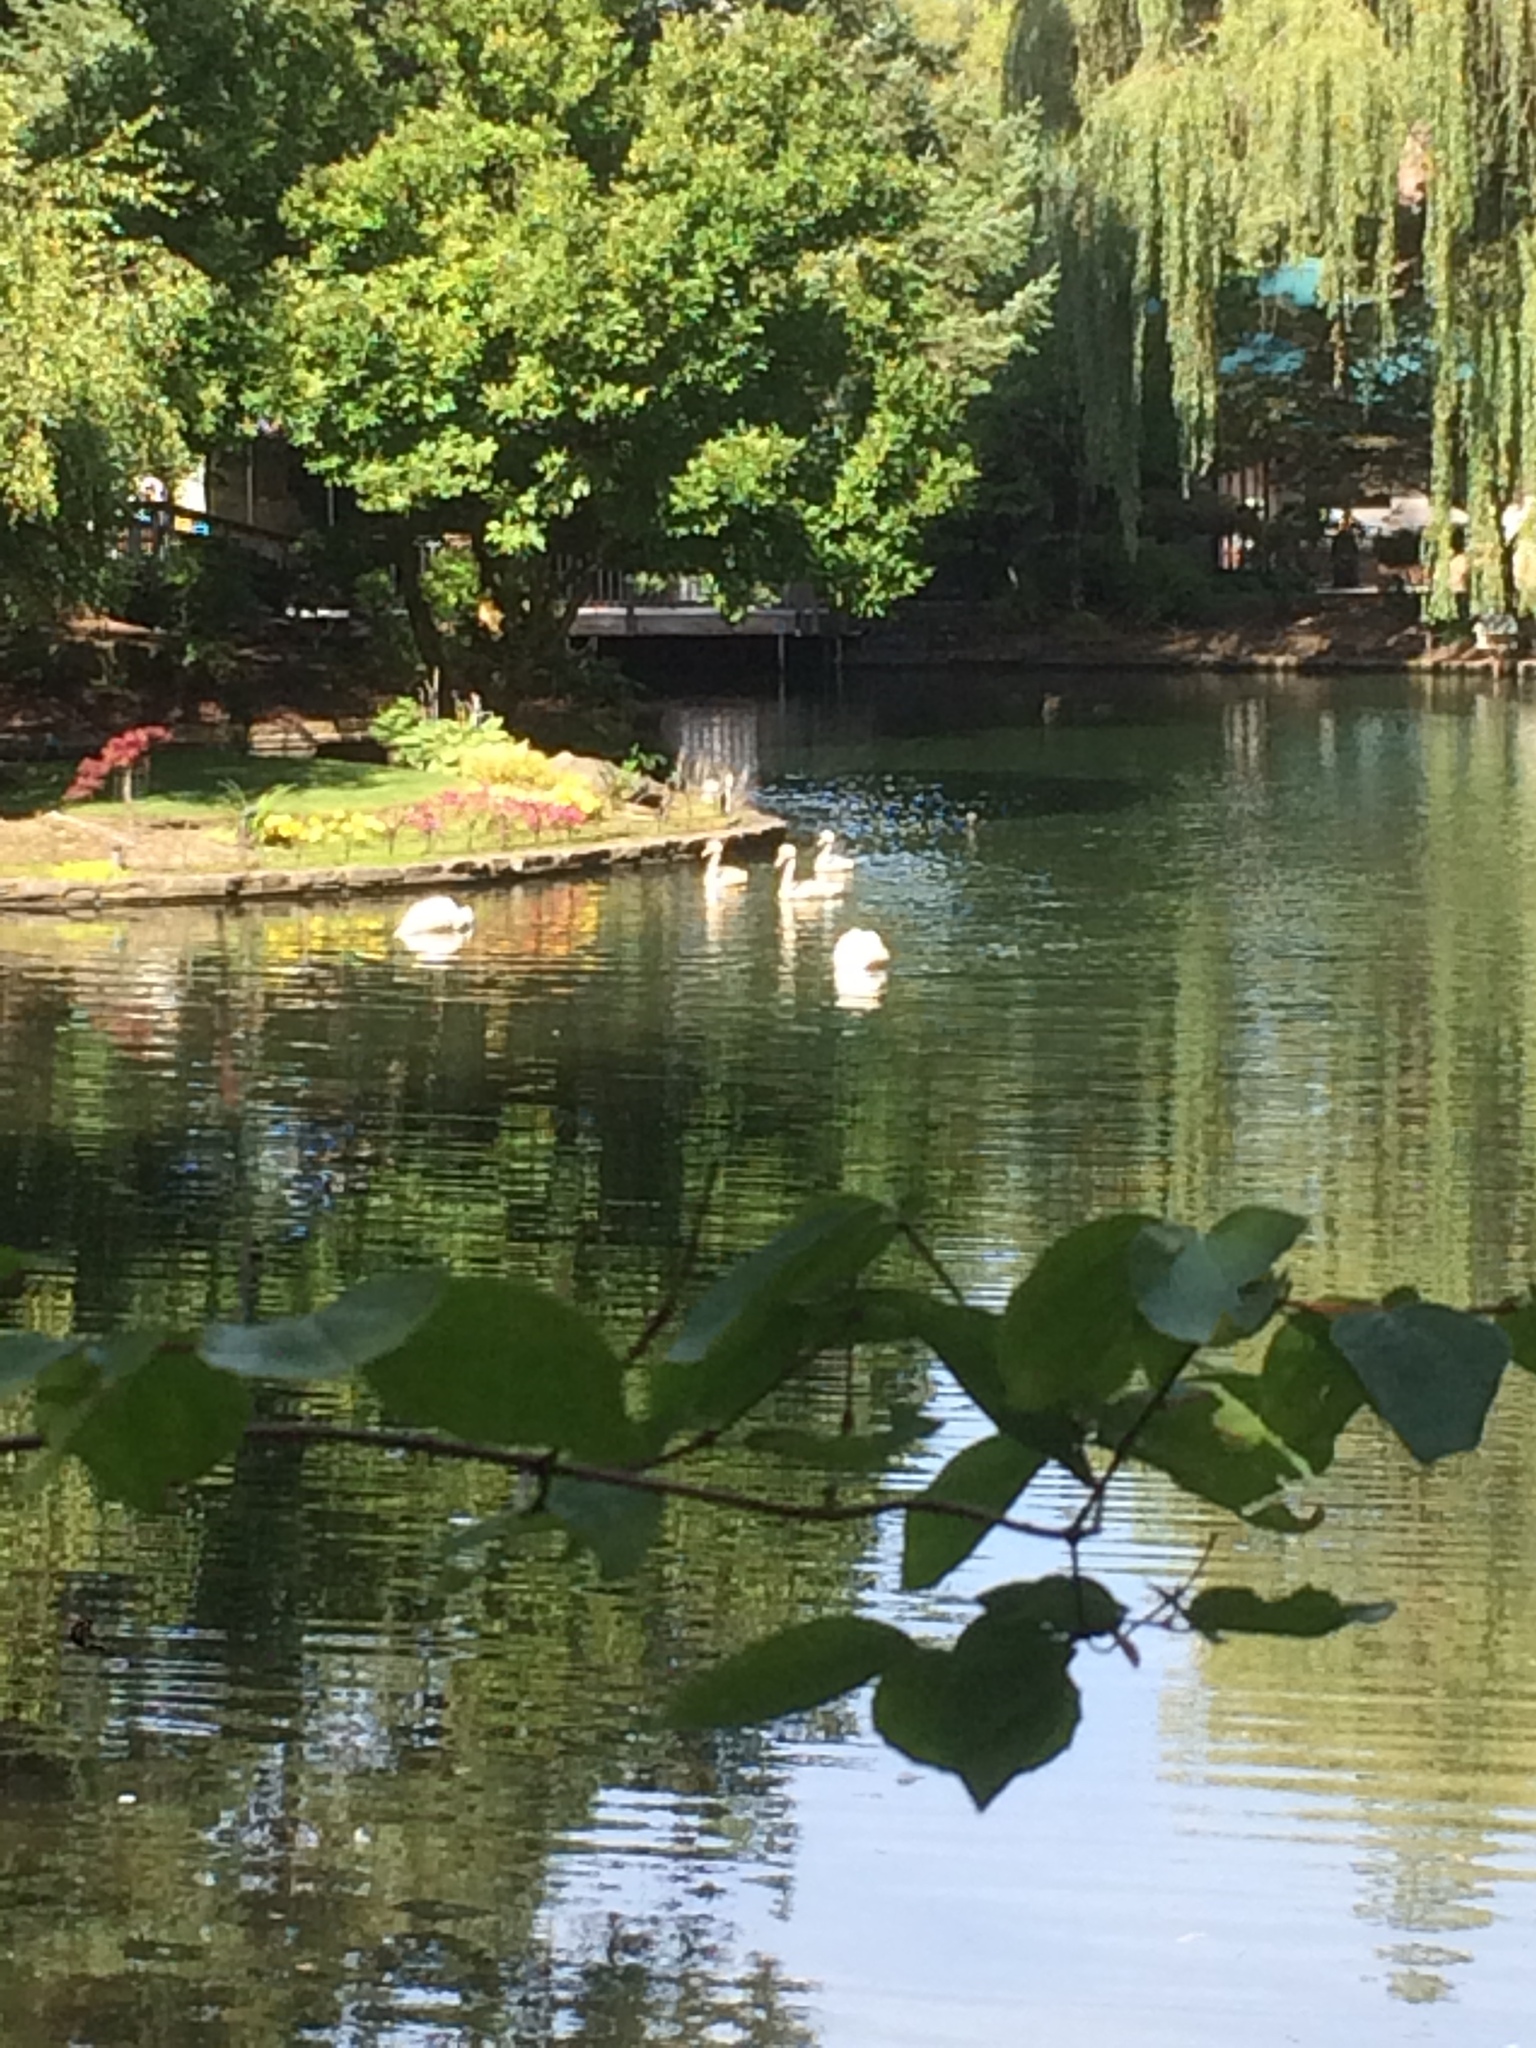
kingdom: Animalia
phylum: Chordata
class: Aves
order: Anseriformes
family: Anatidae
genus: Cygnus
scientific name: Cygnus olor
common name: Mute swan
